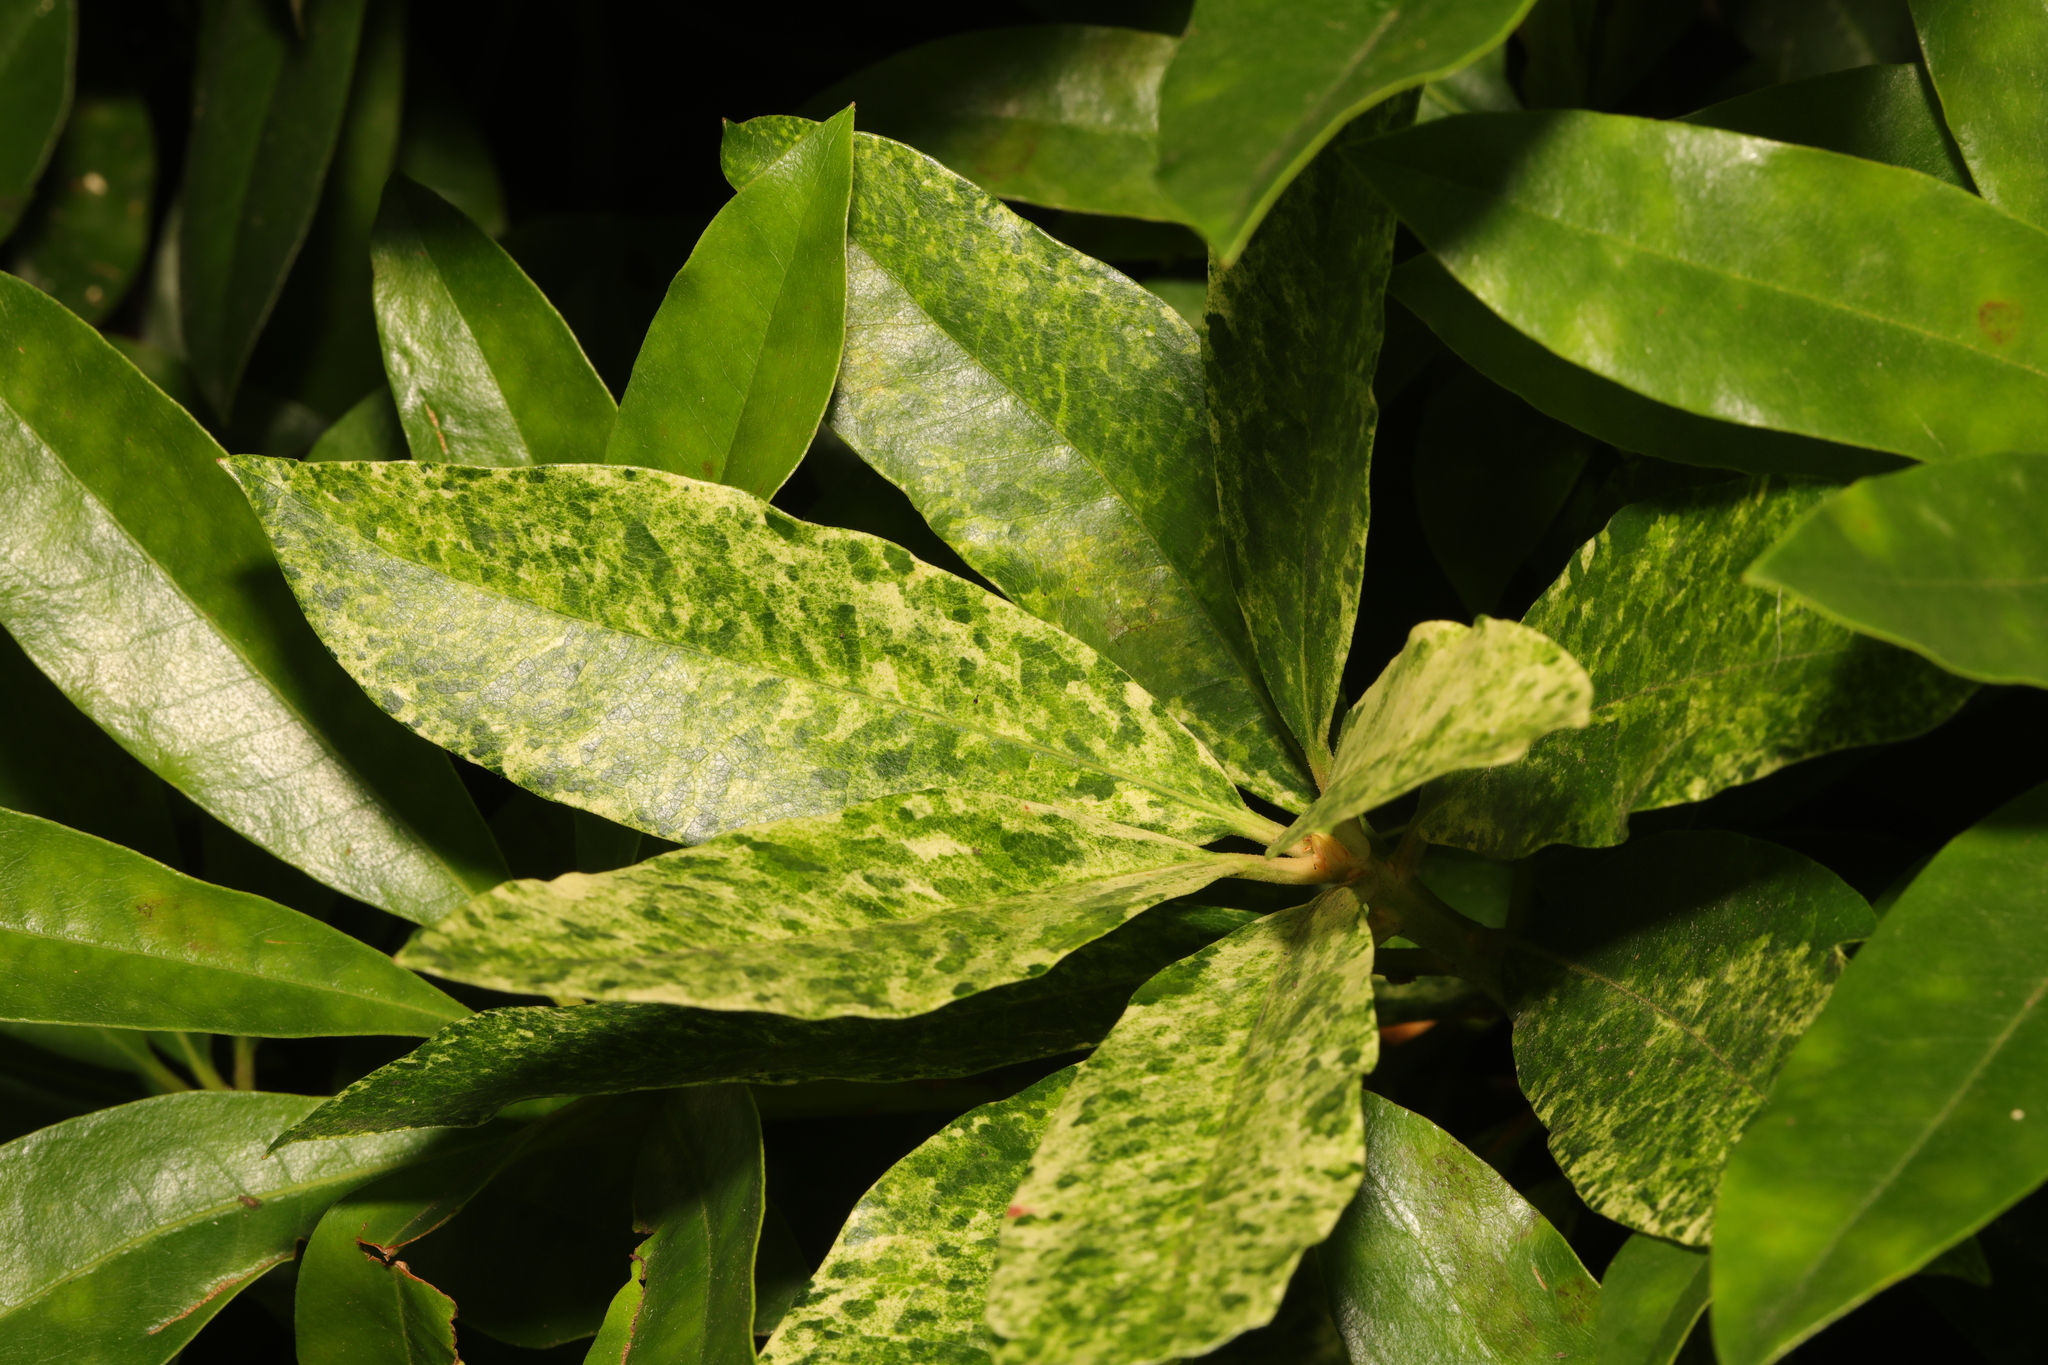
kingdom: Plantae
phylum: Tracheophyta
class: Magnoliopsida
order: Ericales
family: Ericaceae
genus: Rhododendron
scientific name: Rhododendron ponticum
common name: Rhododendron
